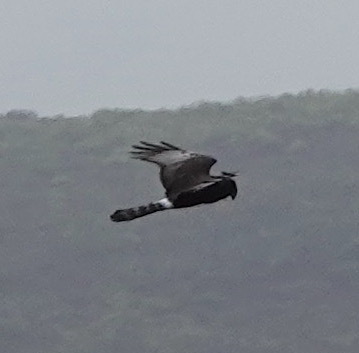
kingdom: Animalia
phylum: Chordata
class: Aves
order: Accipitriformes
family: Accipitridae
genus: Circus
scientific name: Circus maurus
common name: Black harrier
